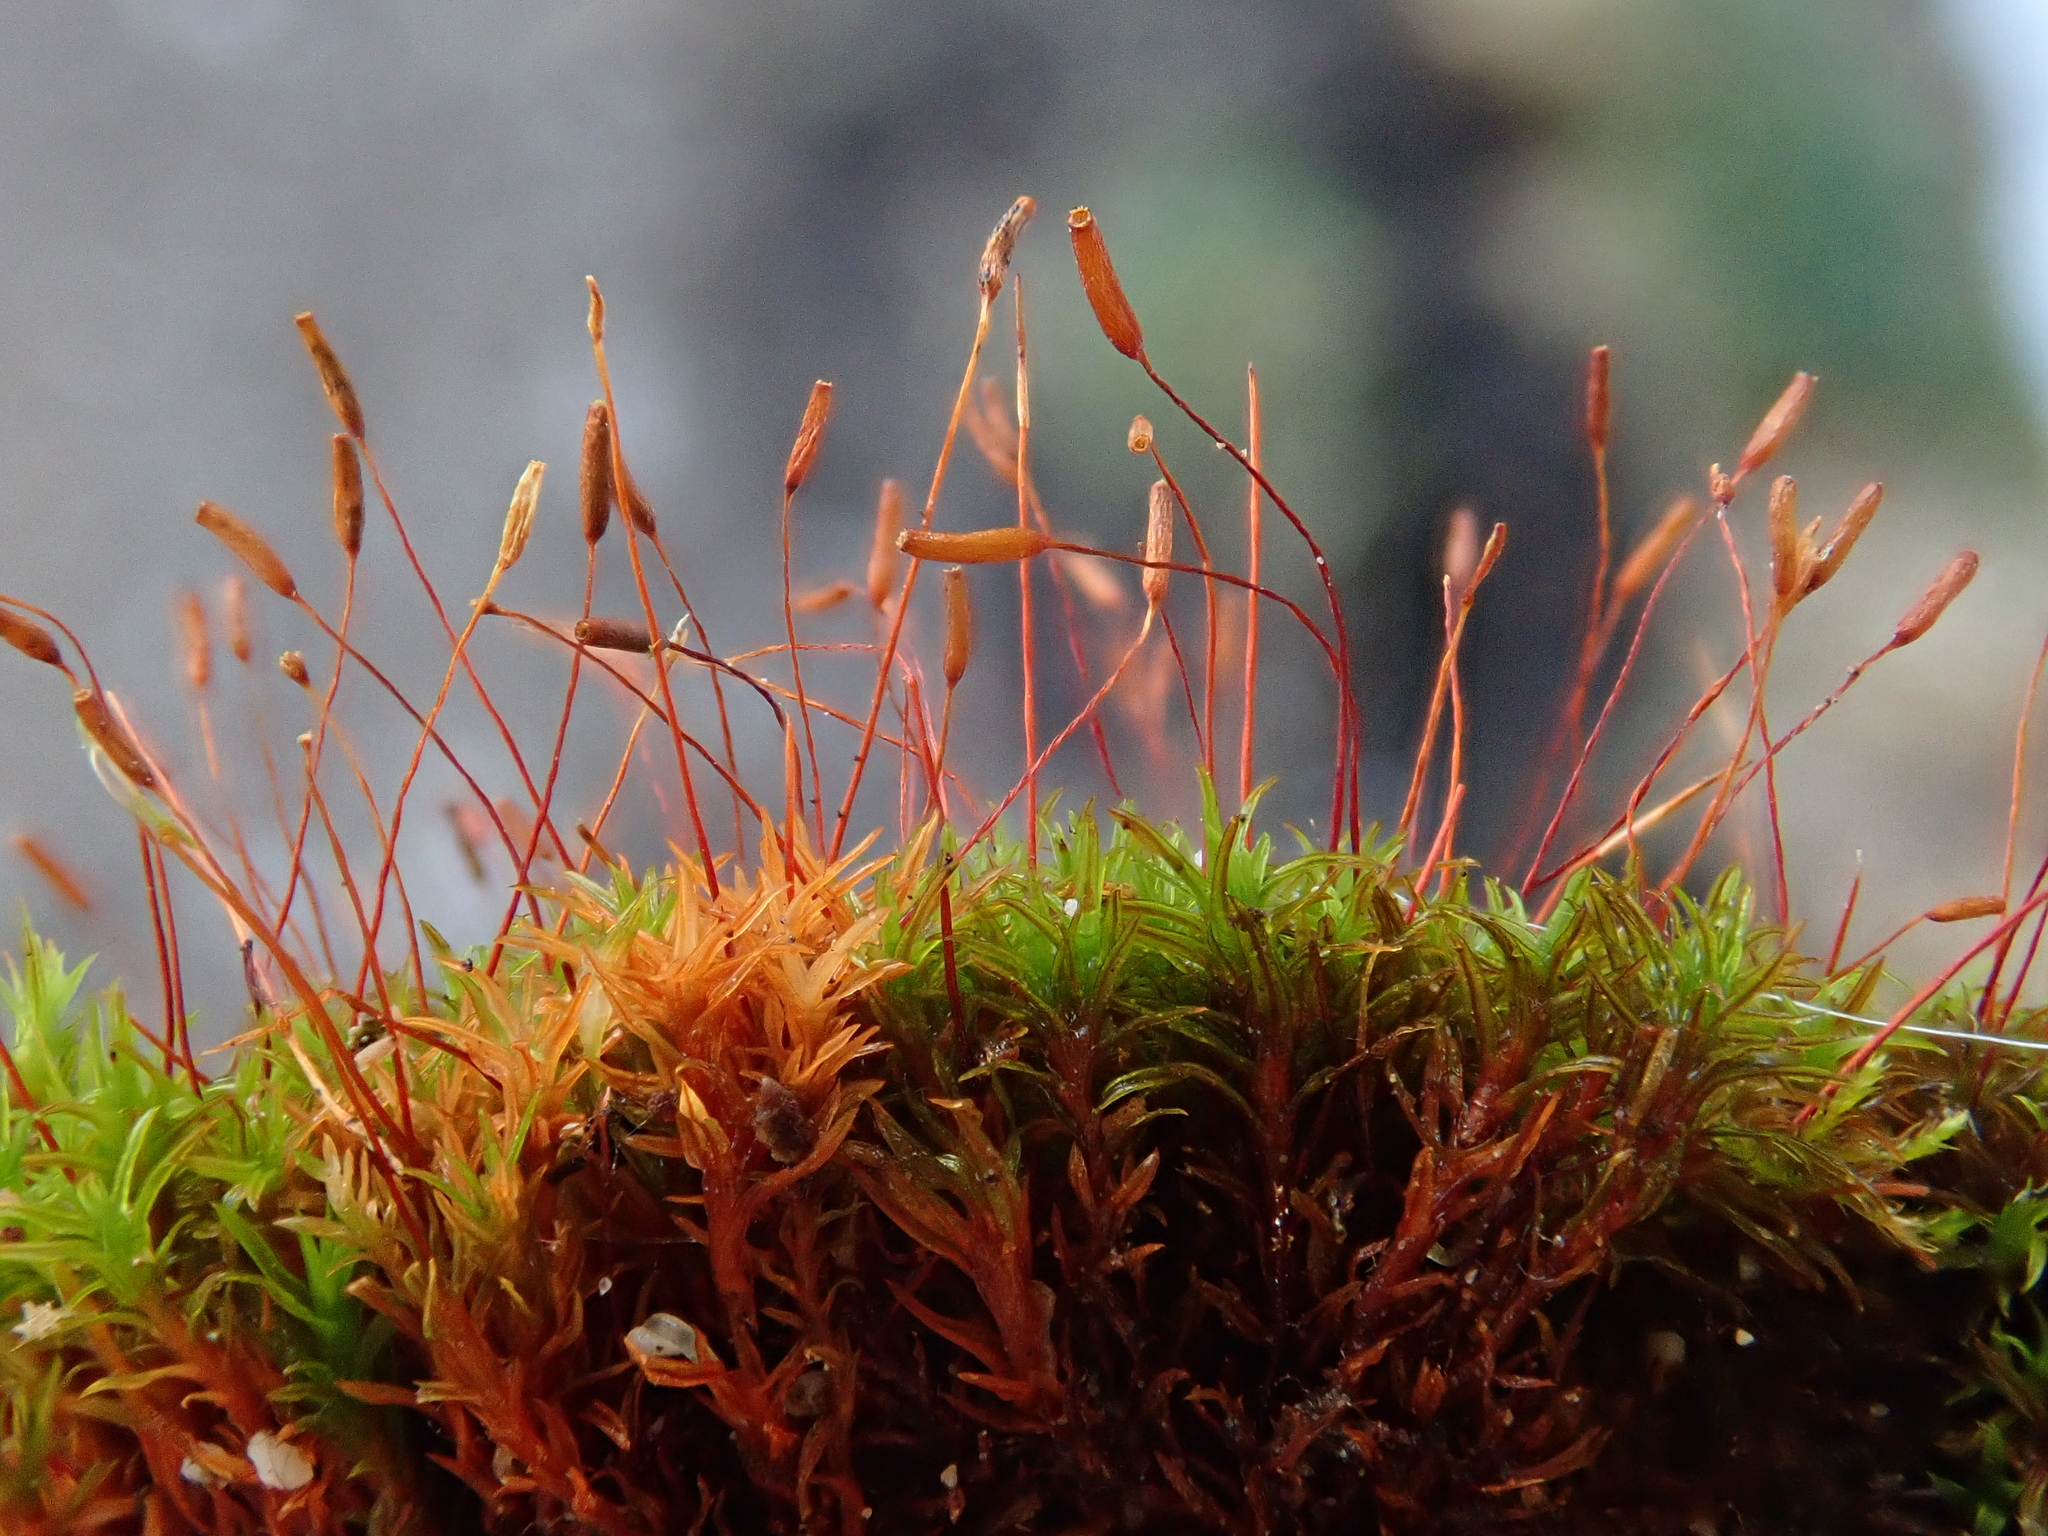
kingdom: Plantae
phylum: Bryophyta
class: Bryopsida
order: Pottiales
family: Pottiaceae
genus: Bryoerythrophyllum
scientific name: Bryoerythrophyllum recurvirostrum
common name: Red beard moss
